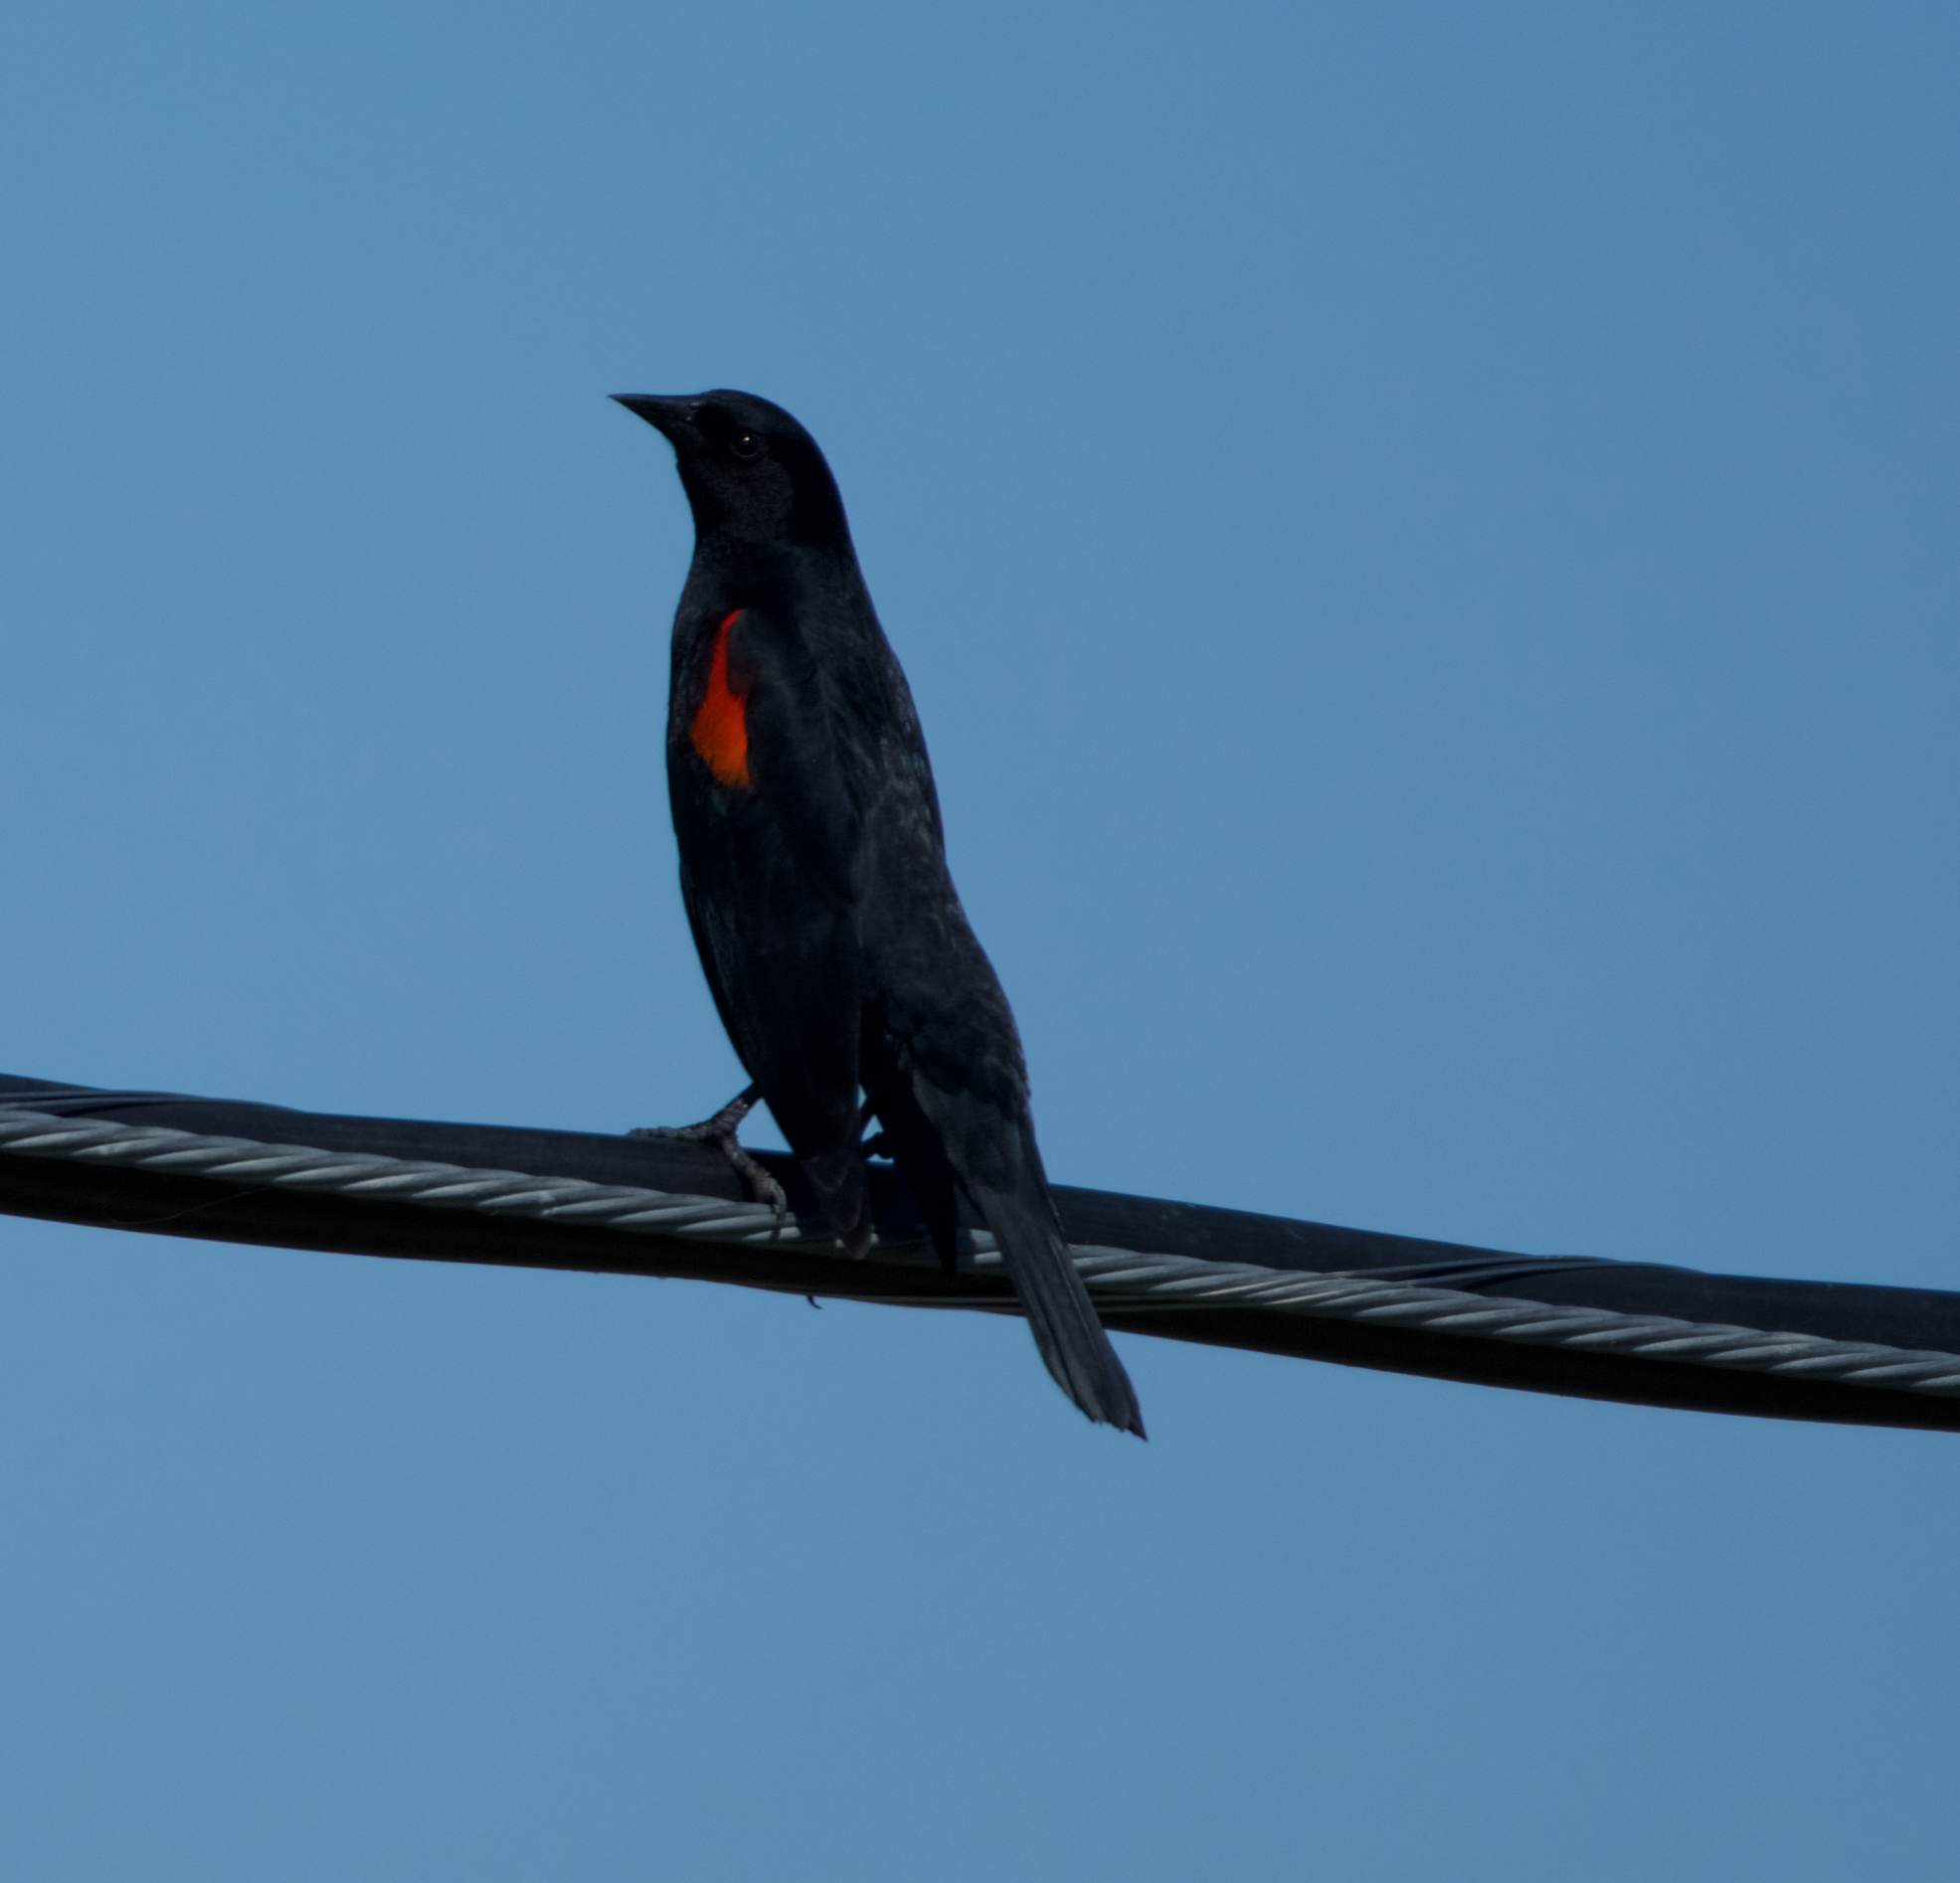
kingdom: Animalia
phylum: Chordata
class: Aves
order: Passeriformes
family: Icteridae
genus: Agelaius
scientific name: Agelaius phoeniceus
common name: Red-winged blackbird
